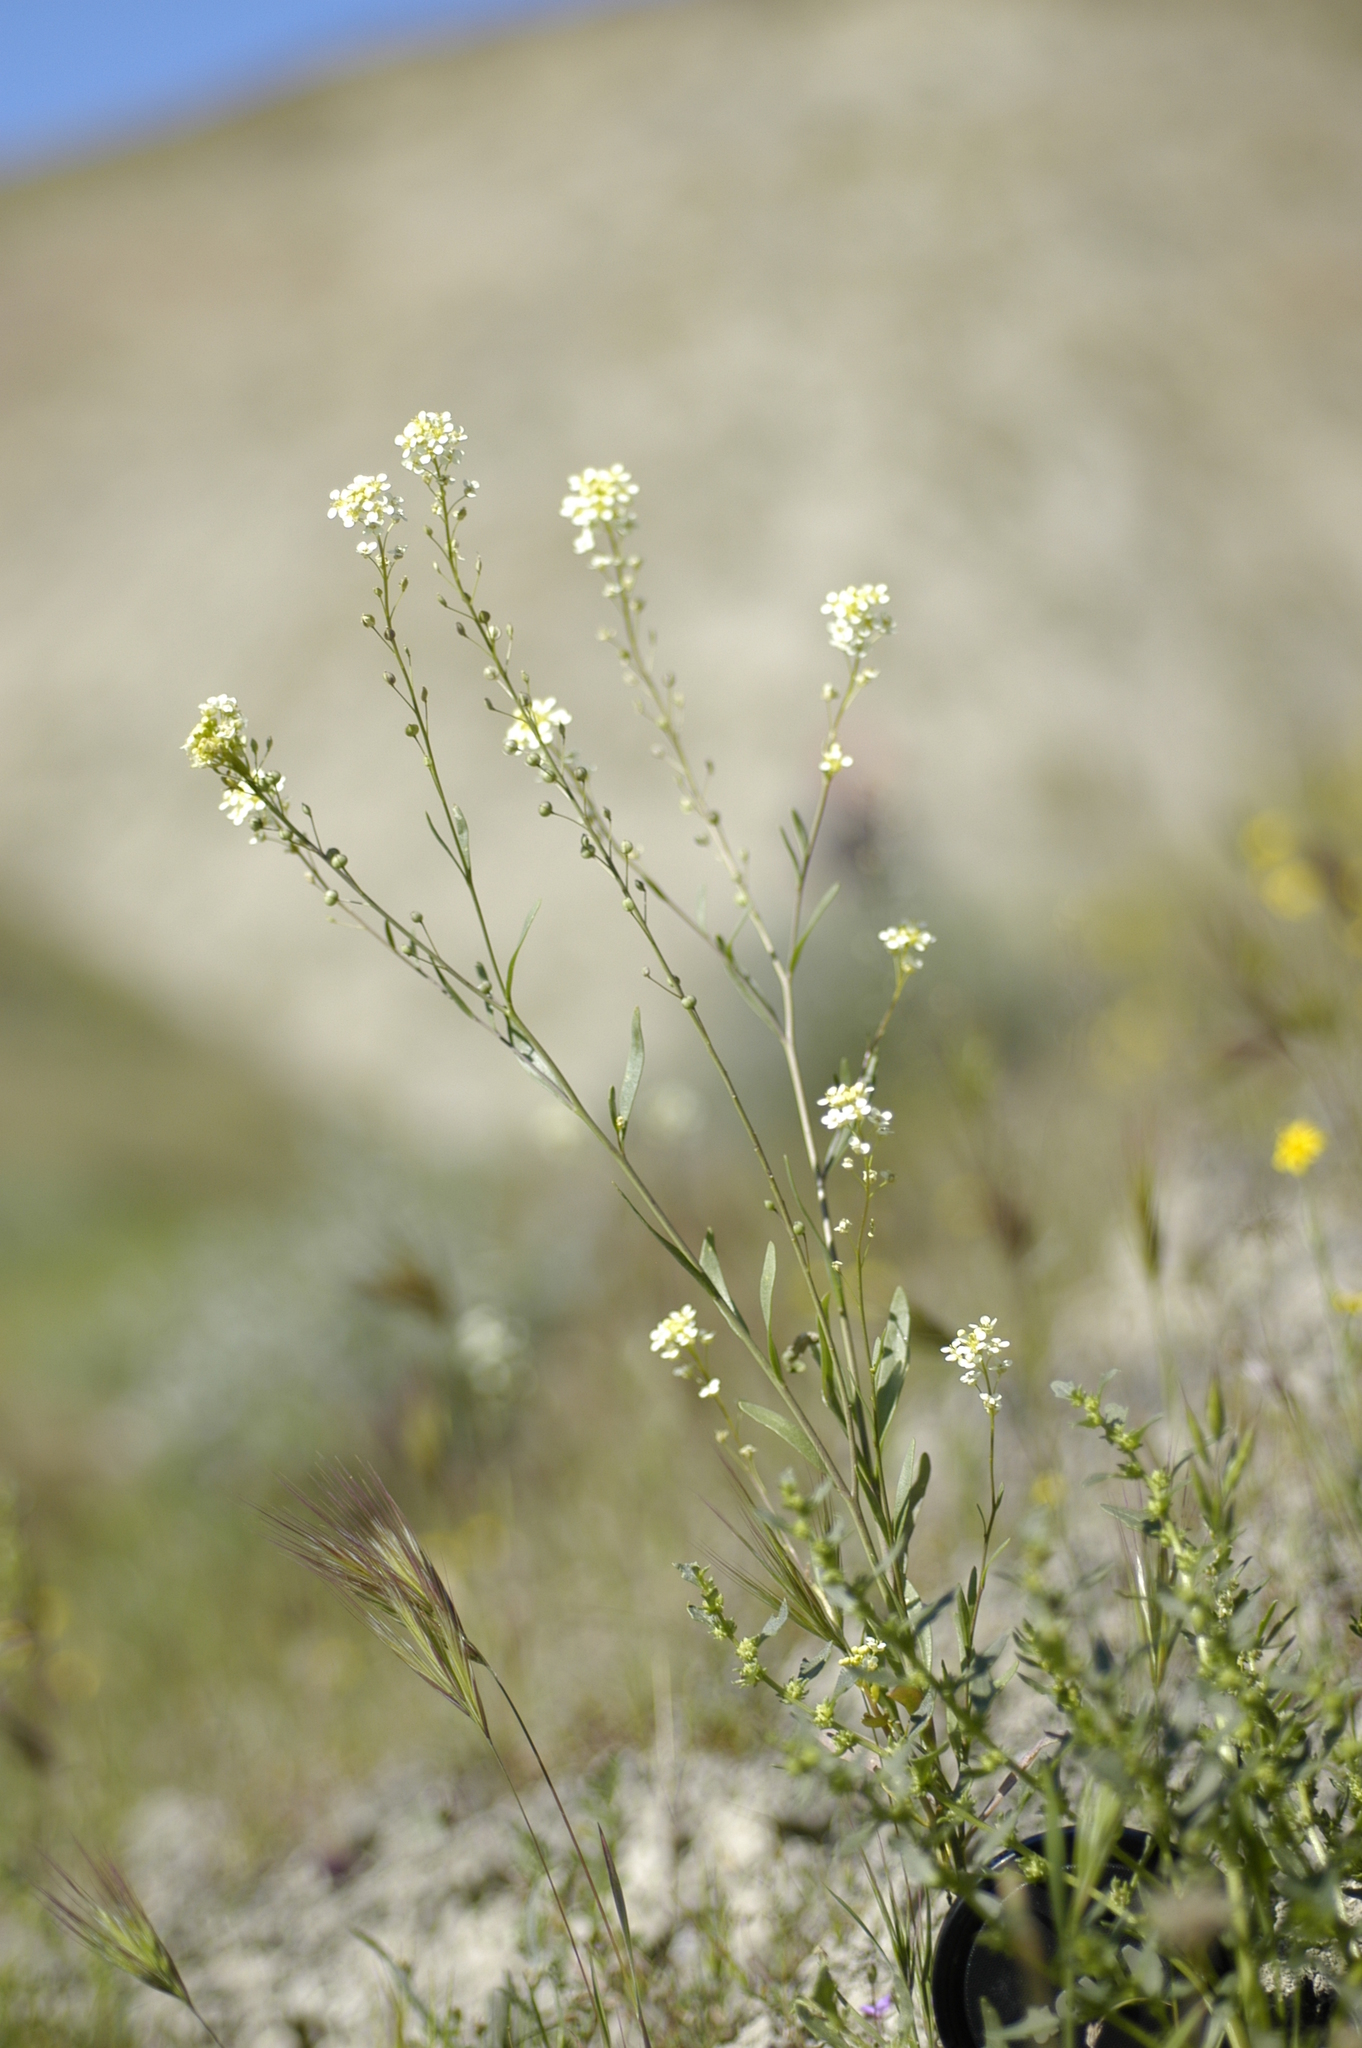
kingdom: Plantae
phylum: Tracheophyta
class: Magnoliopsida
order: Brassicales
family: Brassicaceae
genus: Lepidium
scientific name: Lepidium jaredii
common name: Jared's peppergrass
